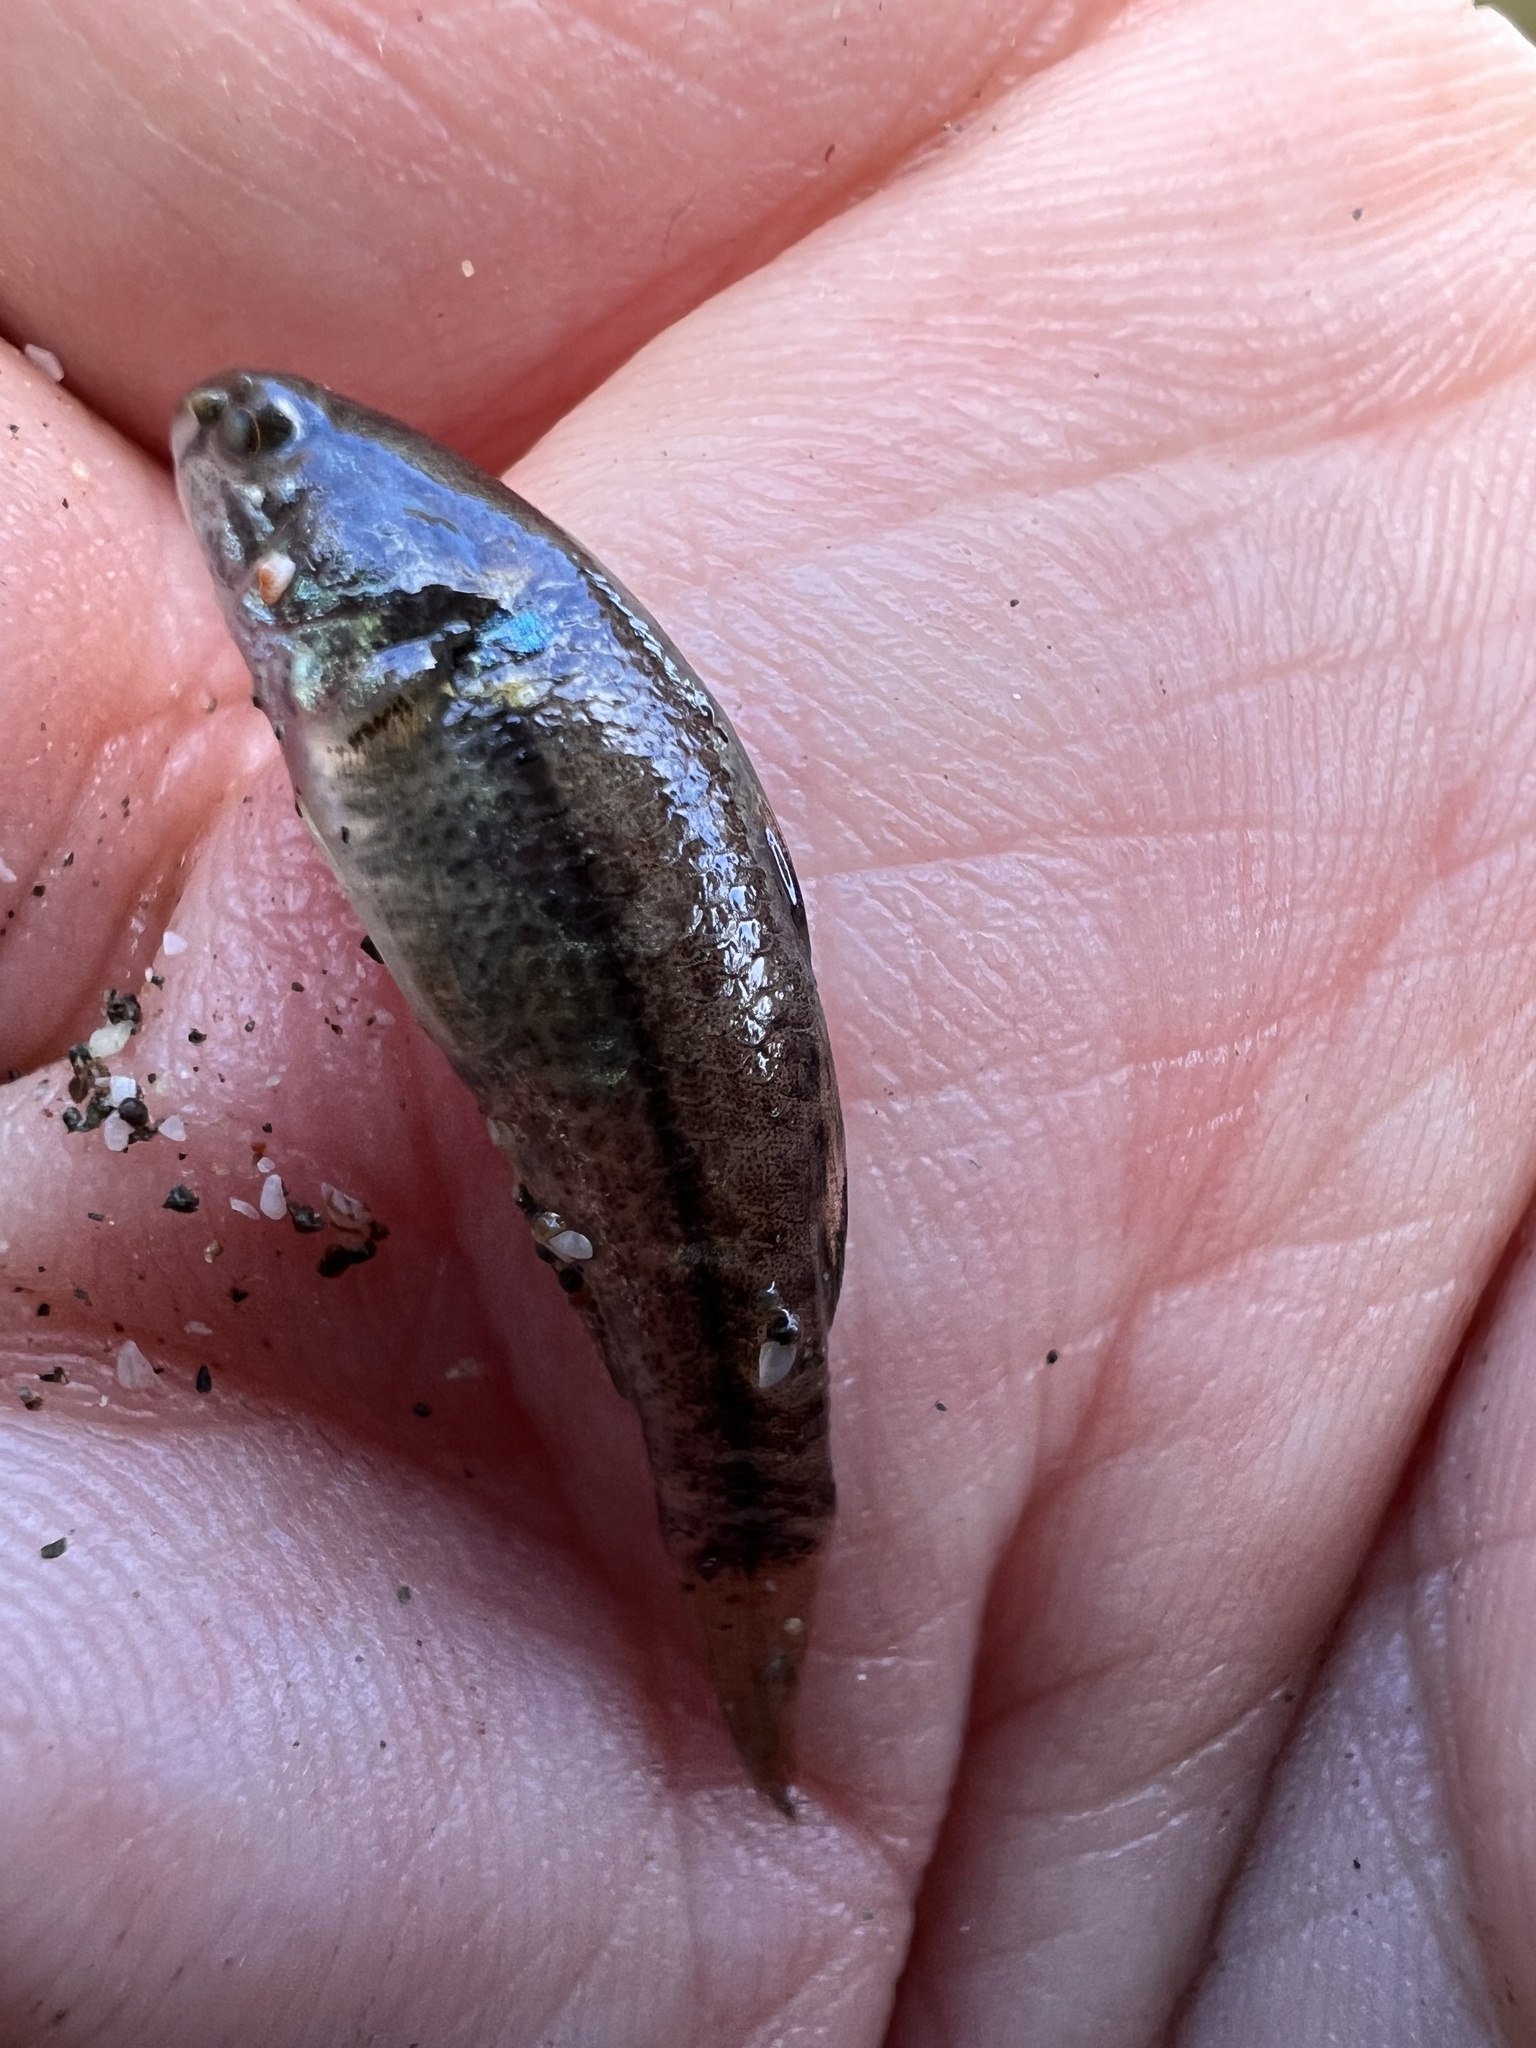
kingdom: Animalia
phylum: Chordata
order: Perciformes
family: Eleotridae
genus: Dormitator
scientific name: Dormitator latifrons
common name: Pacific fat sleeper
